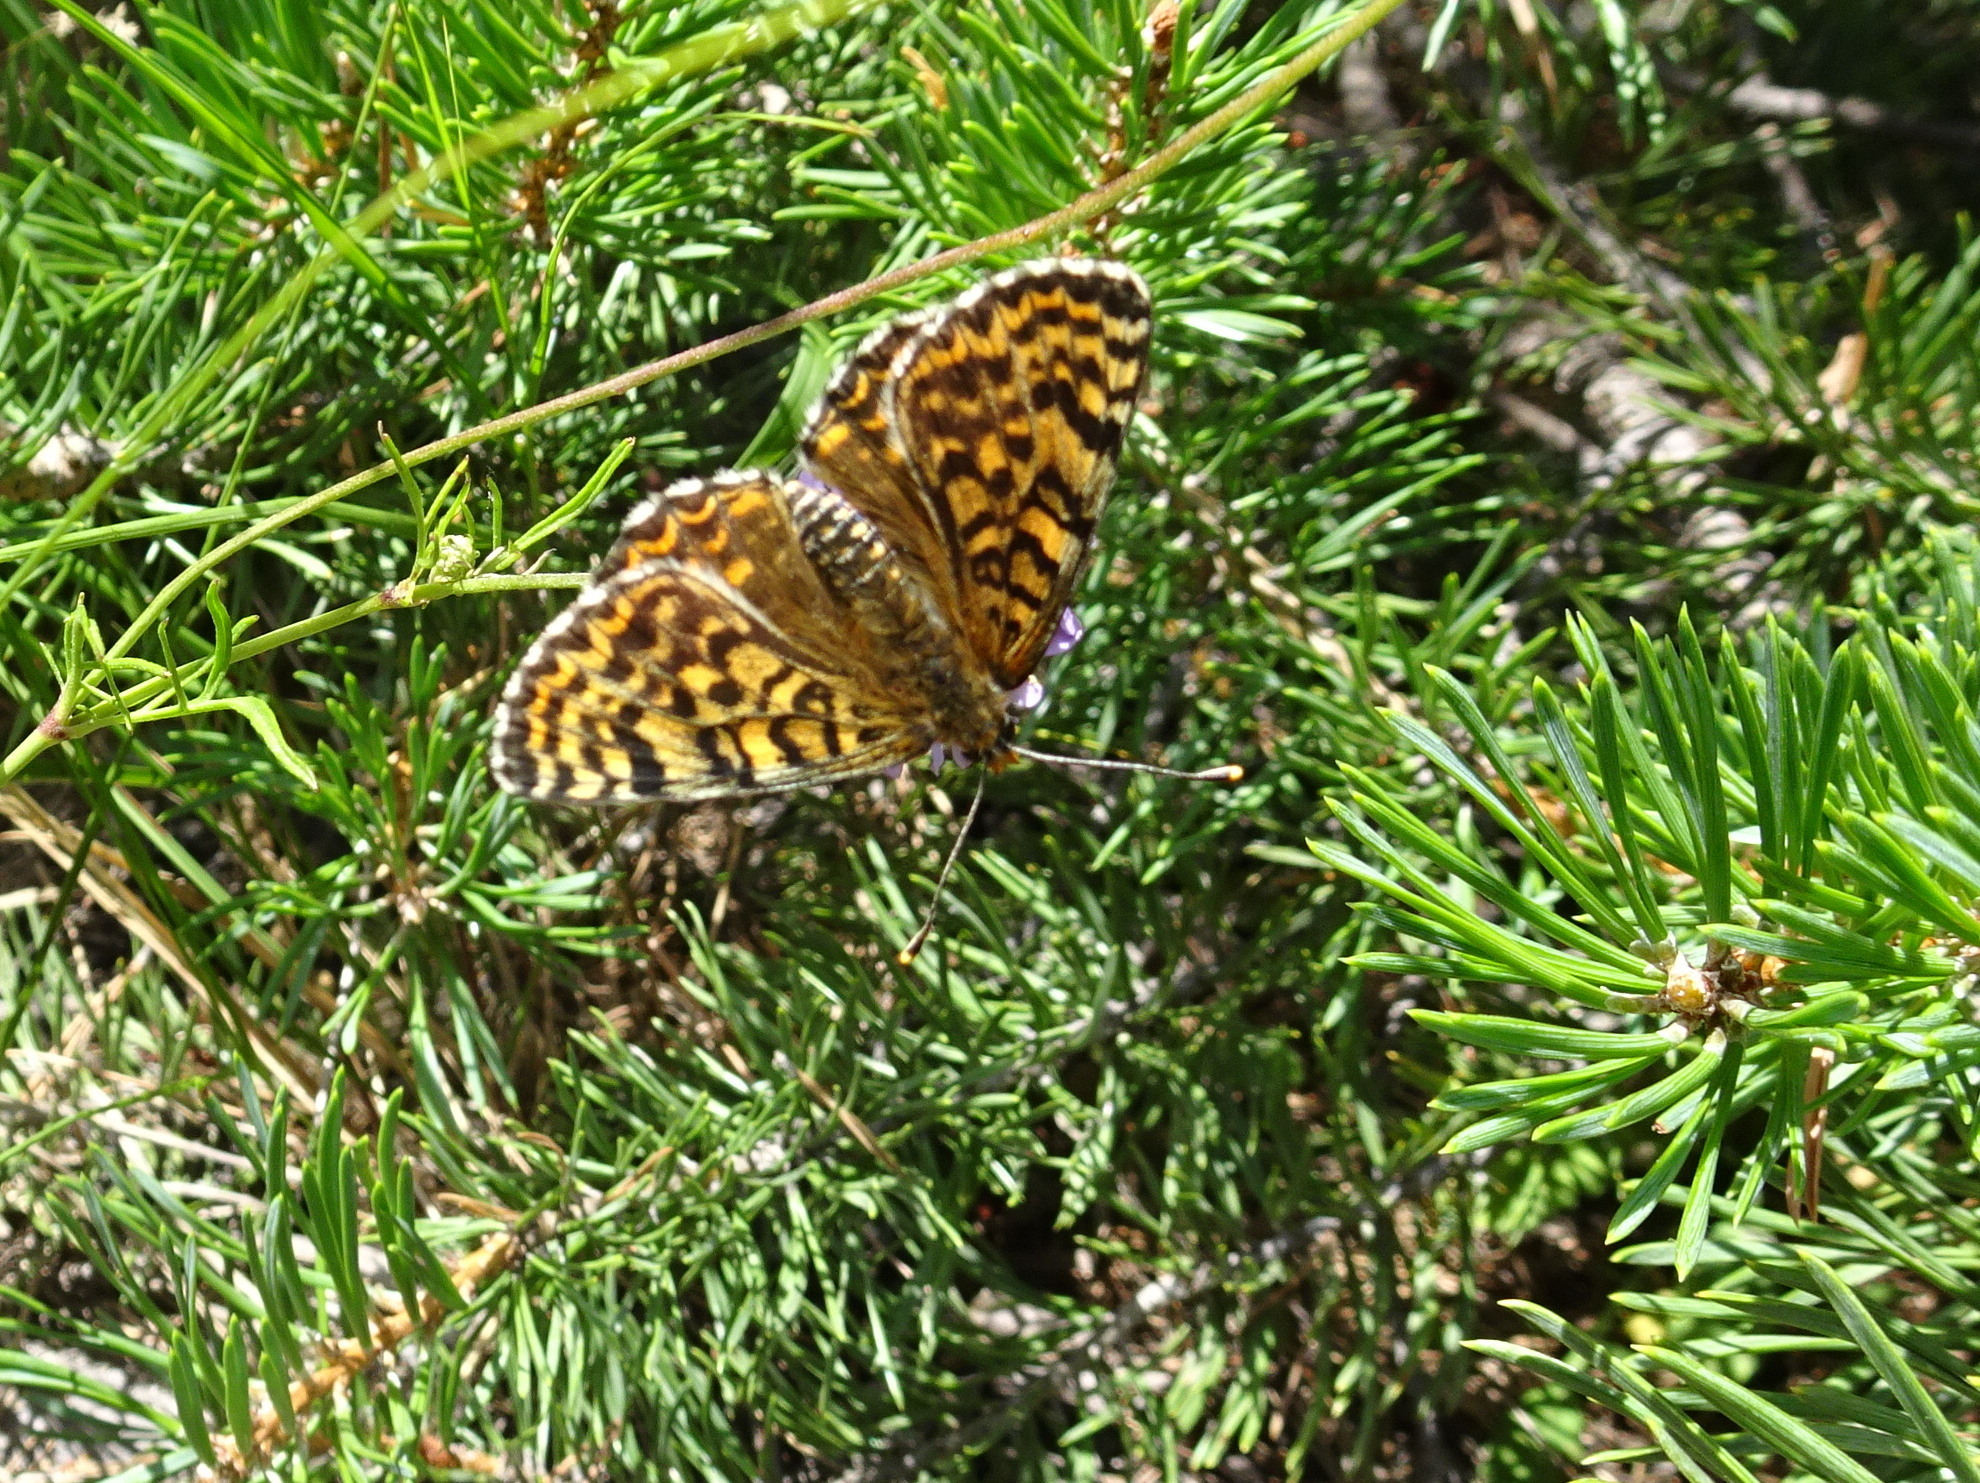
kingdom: Animalia
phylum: Arthropoda
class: Insecta
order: Lepidoptera
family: Nymphalidae
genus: Melitaea
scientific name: Melitaea didyma
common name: Spotted fritillary
